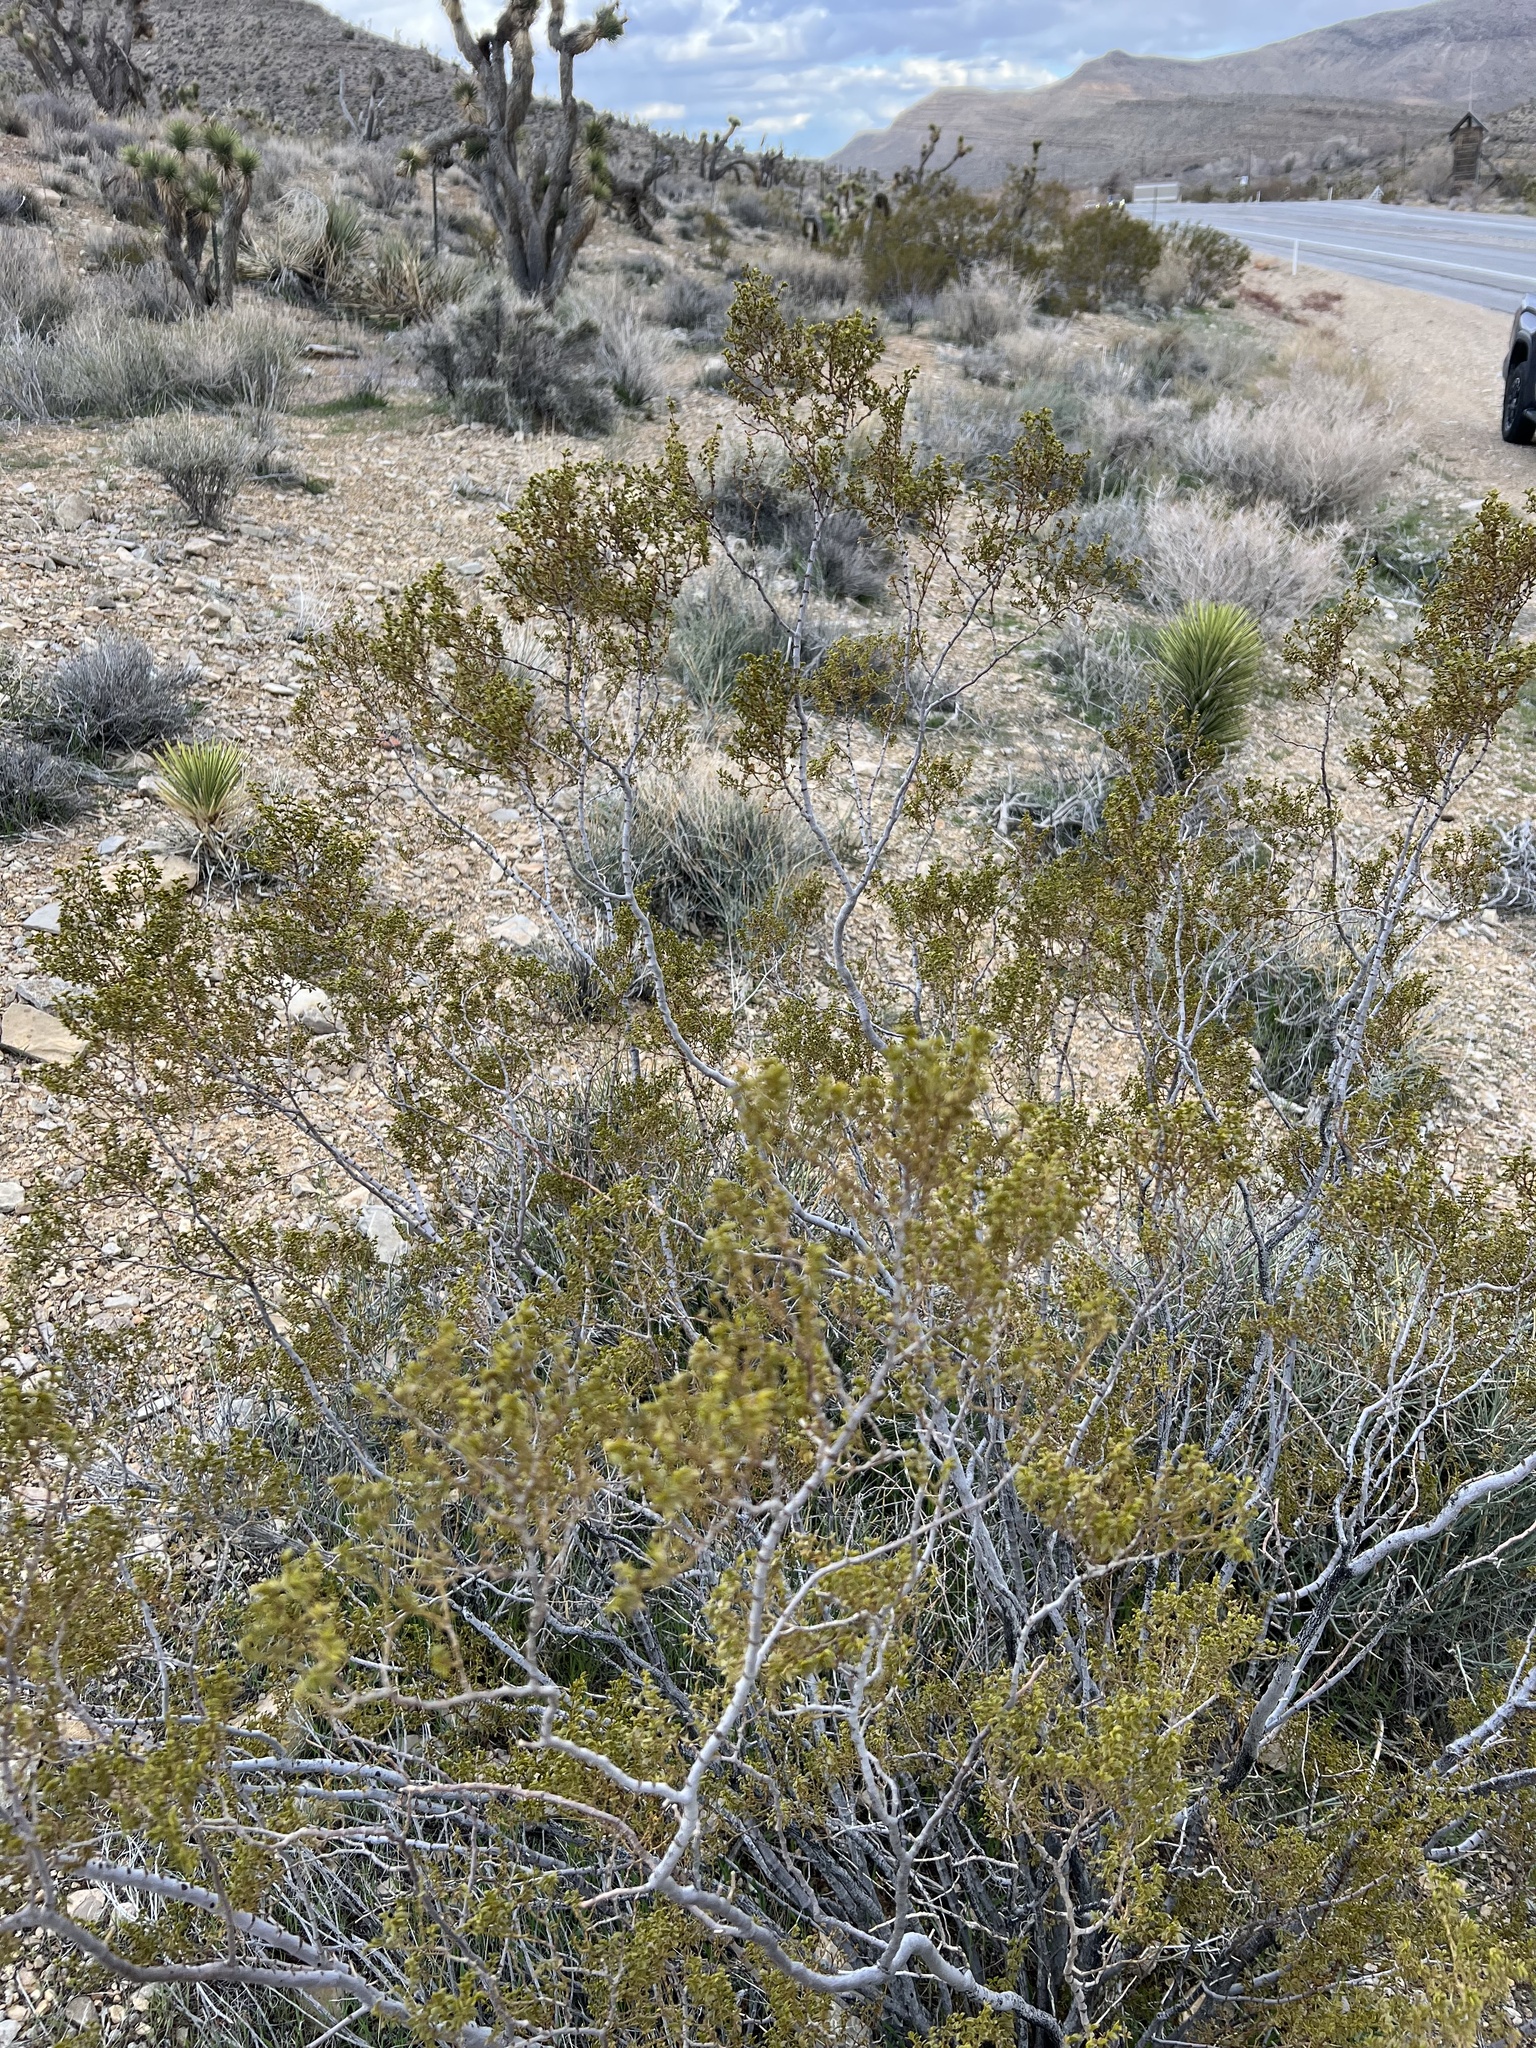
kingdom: Plantae
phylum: Tracheophyta
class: Magnoliopsida
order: Zygophyllales
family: Zygophyllaceae
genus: Larrea
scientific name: Larrea tridentata
